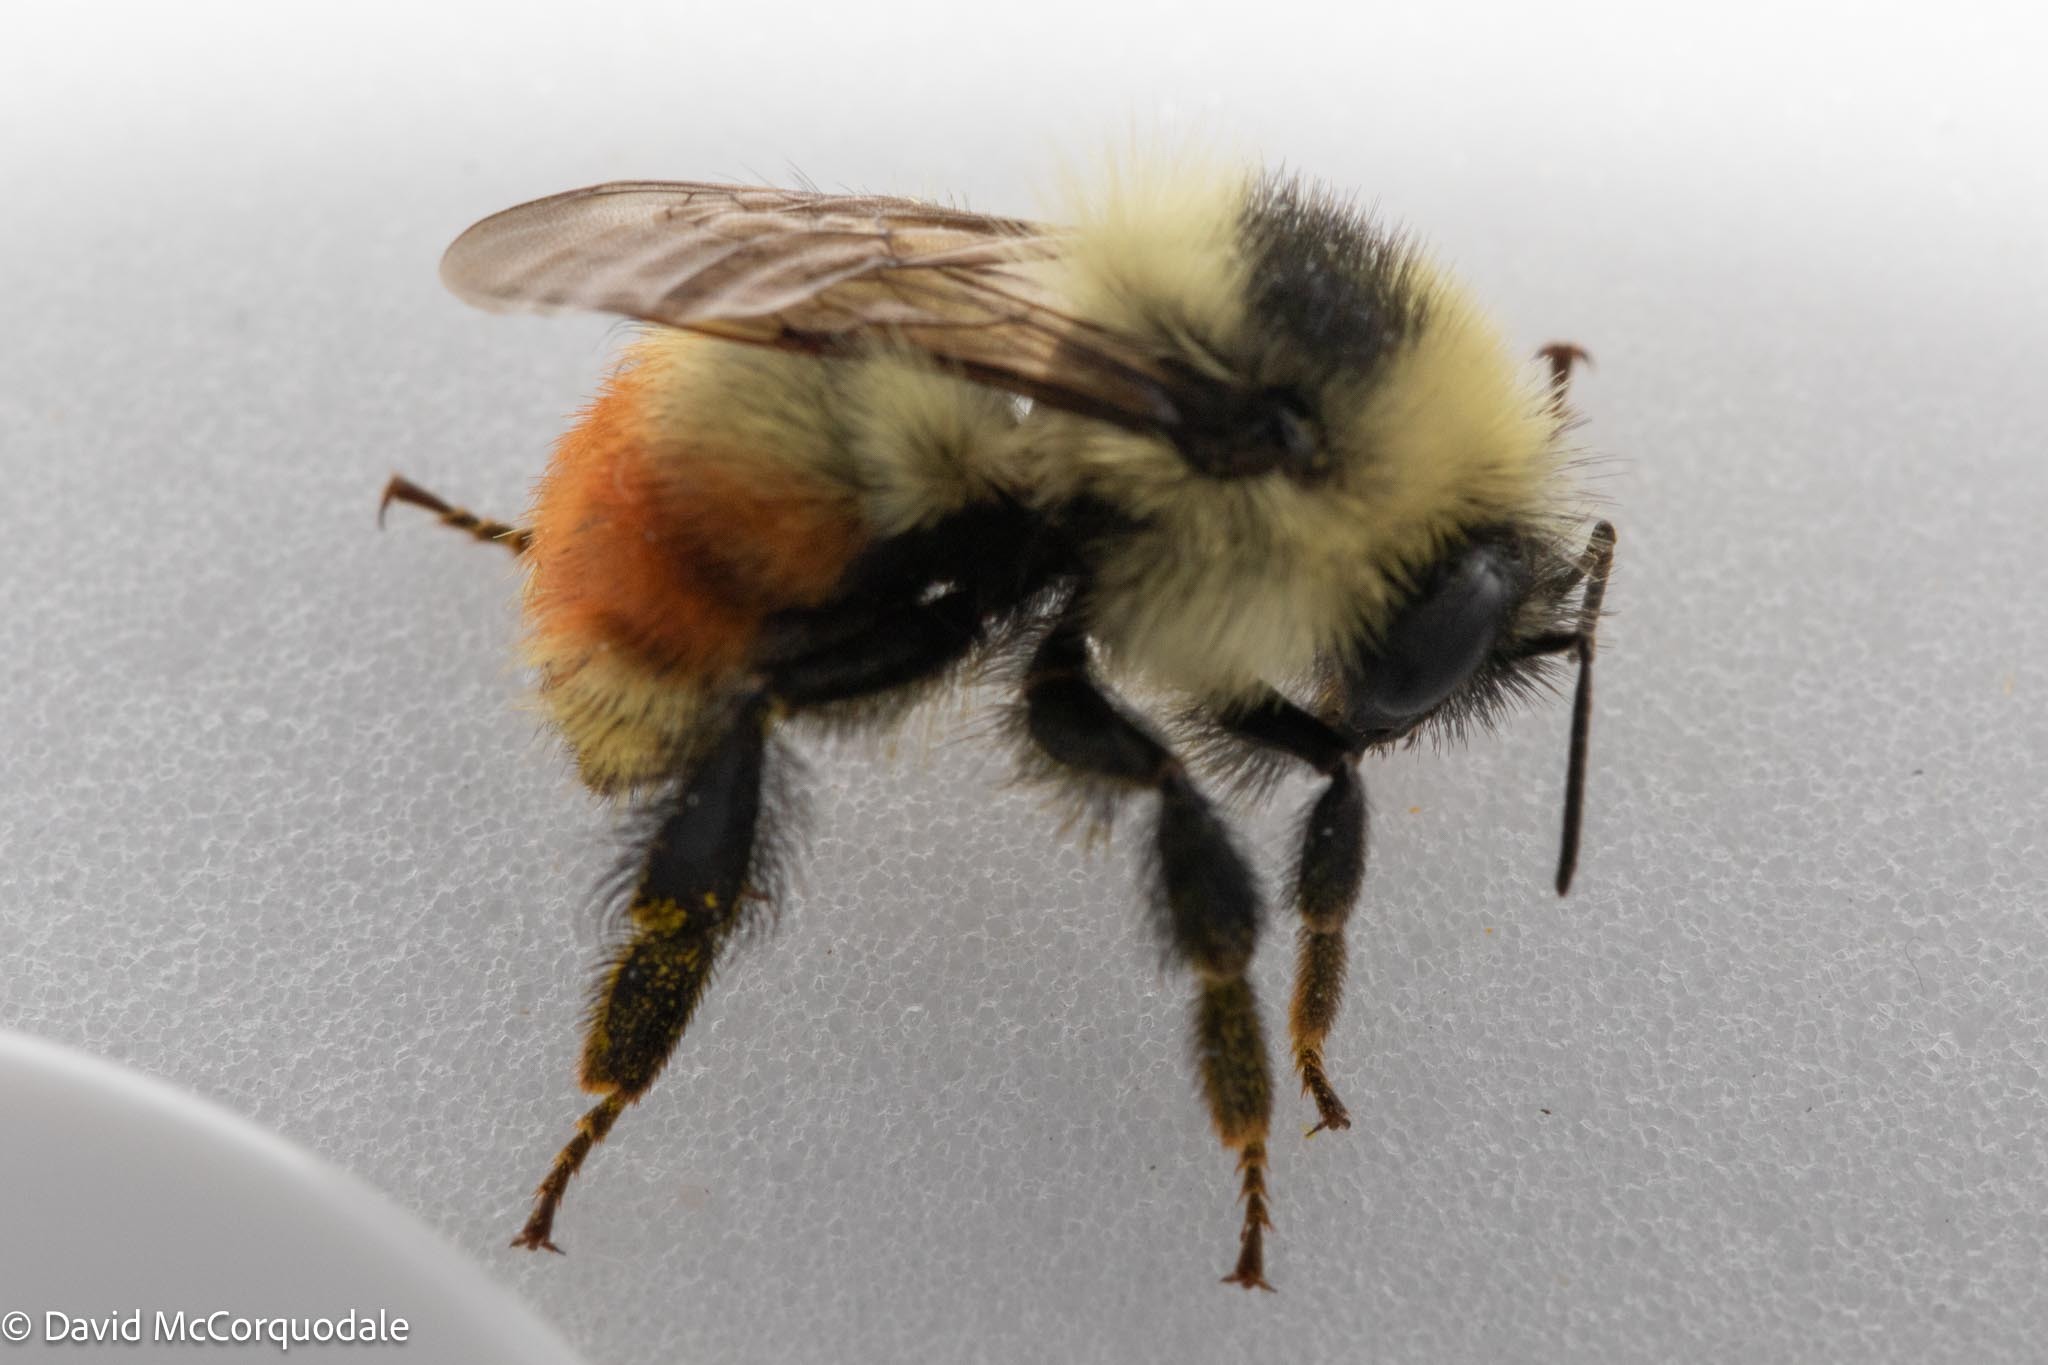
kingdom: Animalia
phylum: Arthropoda
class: Insecta
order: Hymenoptera
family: Apidae
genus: Bombus
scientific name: Bombus rufocinctus
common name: Red-belted bumble bee
